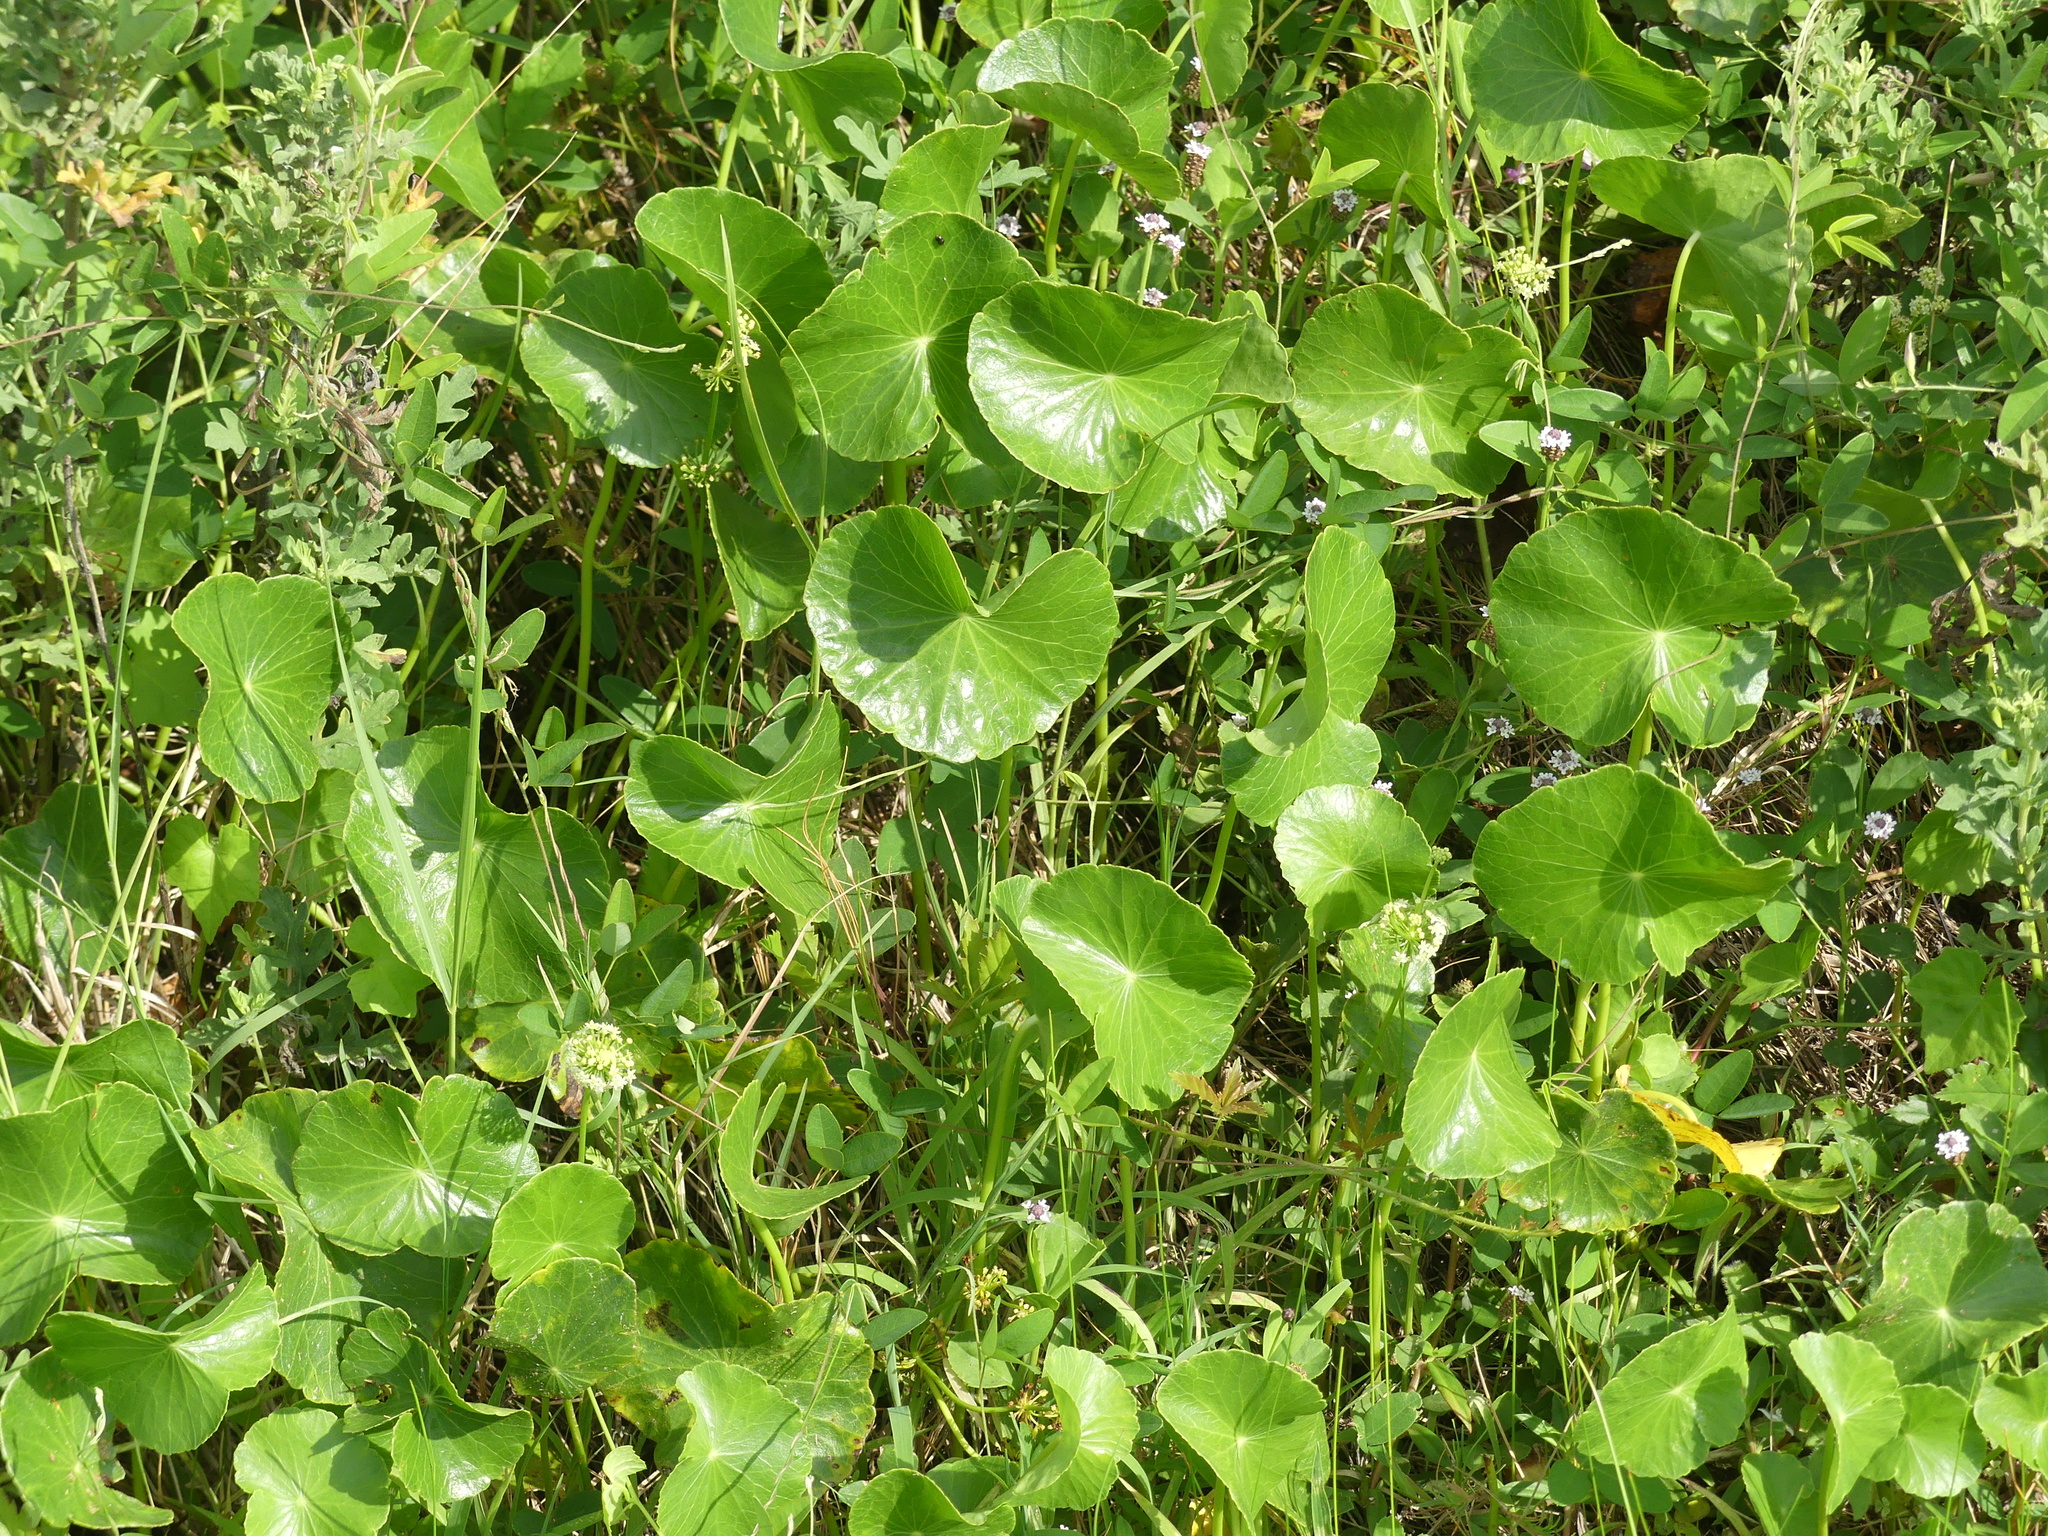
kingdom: Plantae
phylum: Tracheophyta
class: Magnoliopsida
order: Apiales
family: Araliaceae
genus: Hydrocotyle
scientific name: Hydrocotyle bonariensis
